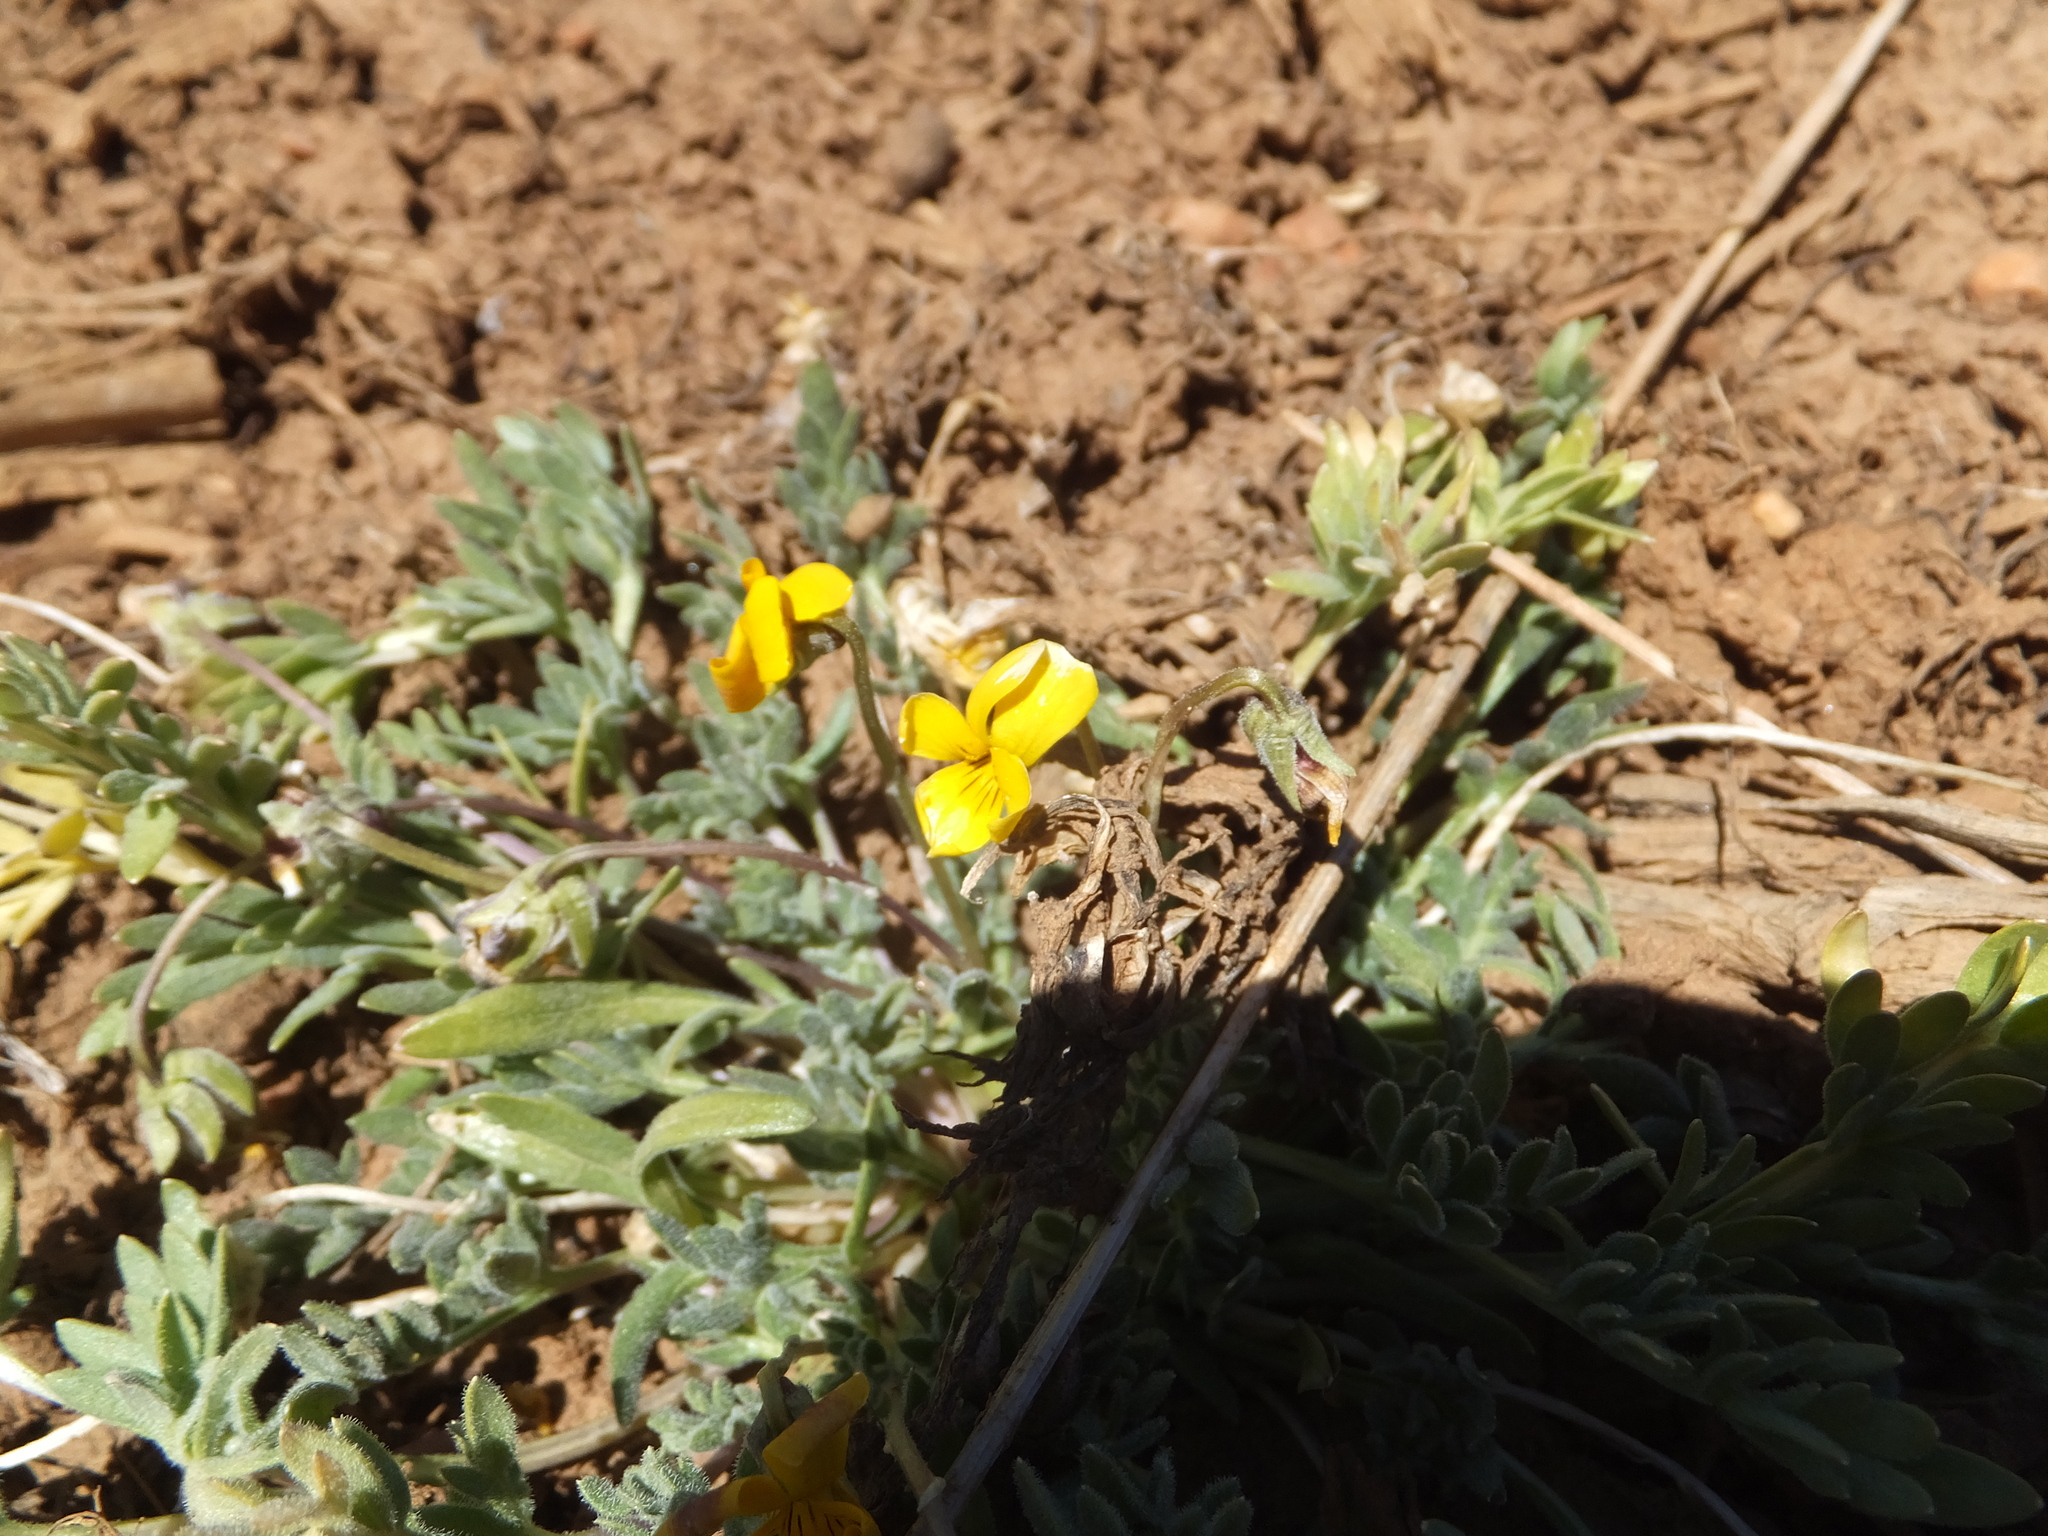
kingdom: Plantae
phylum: Tracheophyta
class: Magnoliopsida
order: Malpighiales
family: Violaceae
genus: Viola
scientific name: Viola douglasii
